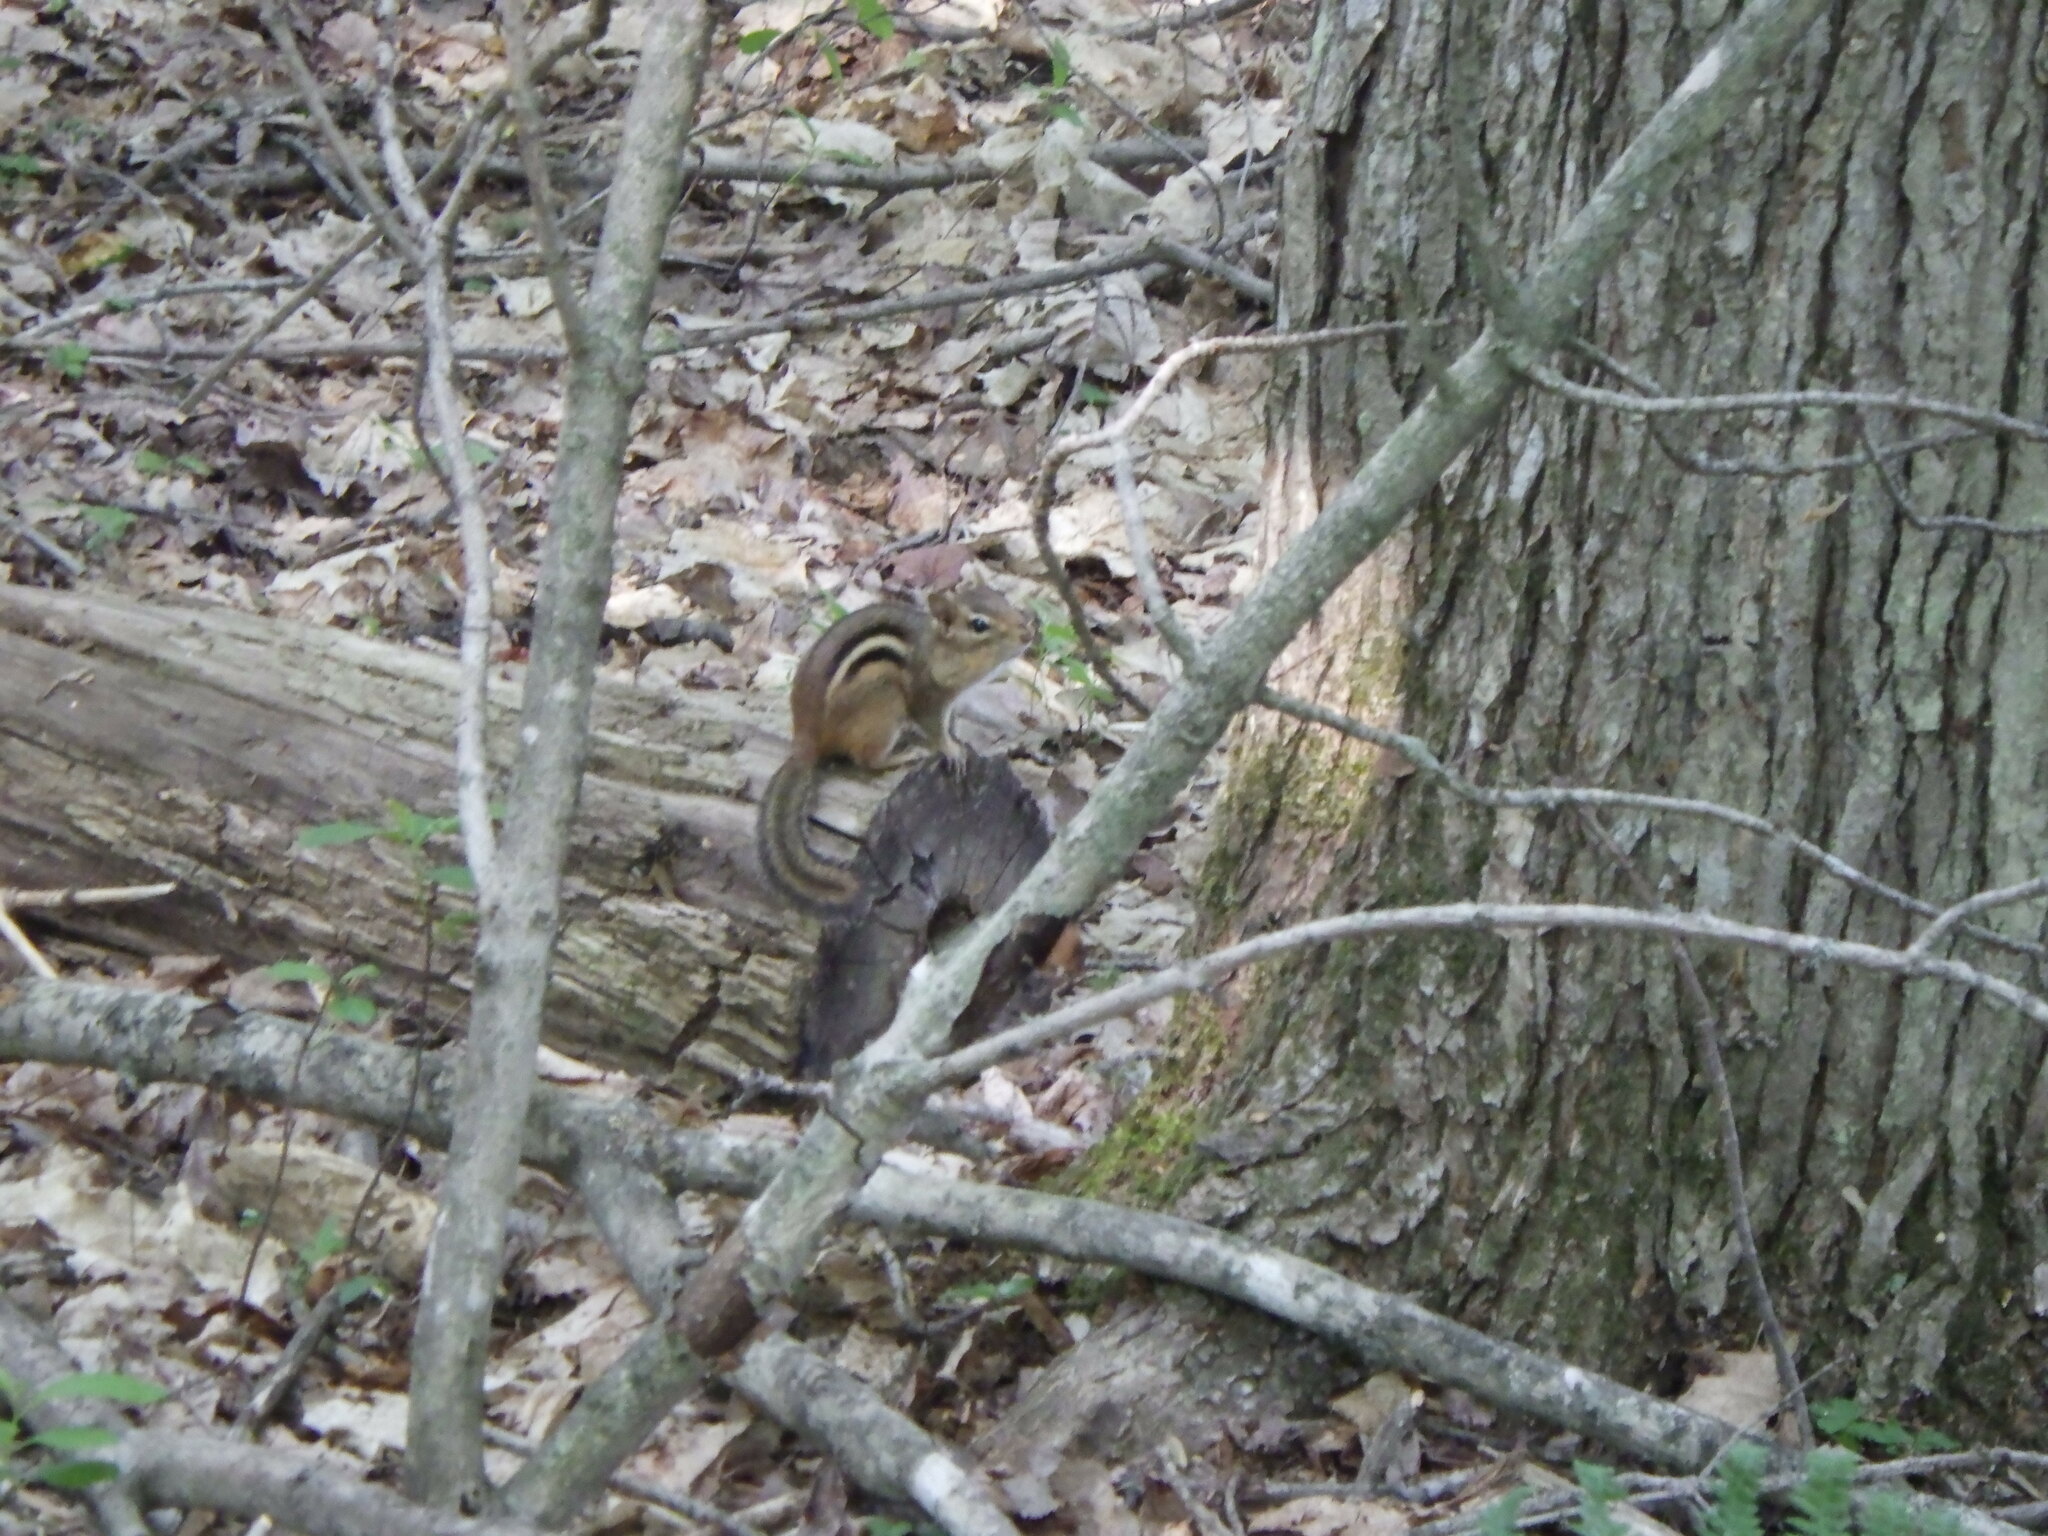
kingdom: Animalia
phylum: Chordata
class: Mammalia
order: Rodentia
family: Sciuridae
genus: Tamias
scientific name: Tamias striatus
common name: Eastern chipmunk
